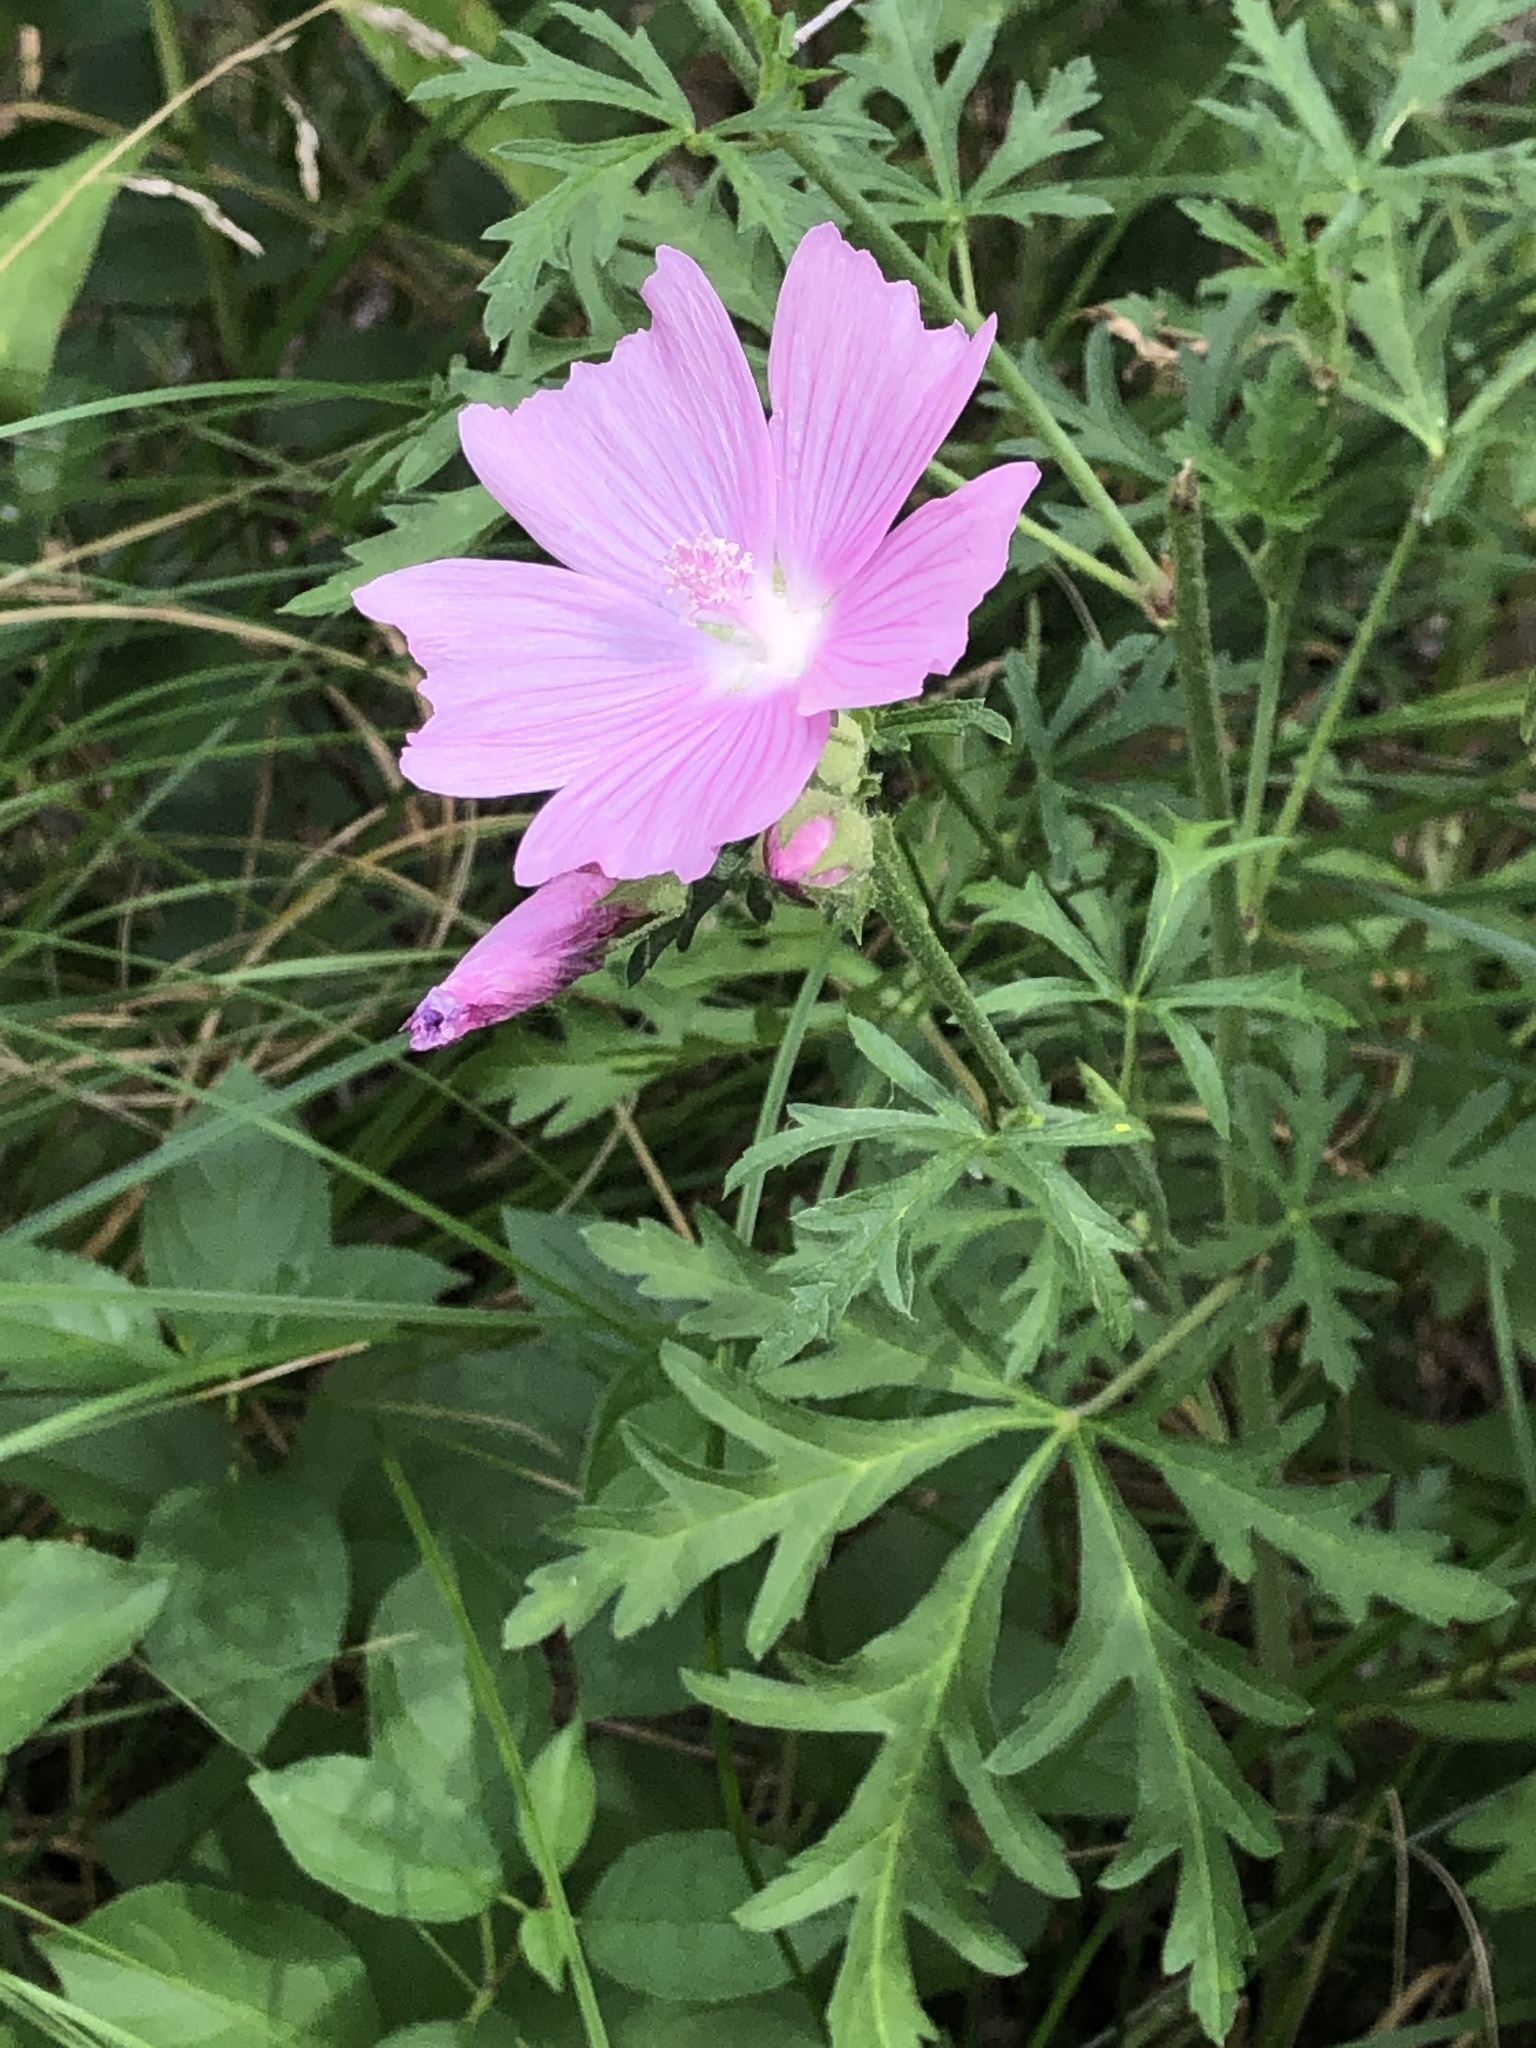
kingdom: Plantae
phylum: Tracheophyta
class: Magnoliopsida
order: Malvales
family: Malvaceae
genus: Malva
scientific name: Malva moschata
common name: Musk mallow
